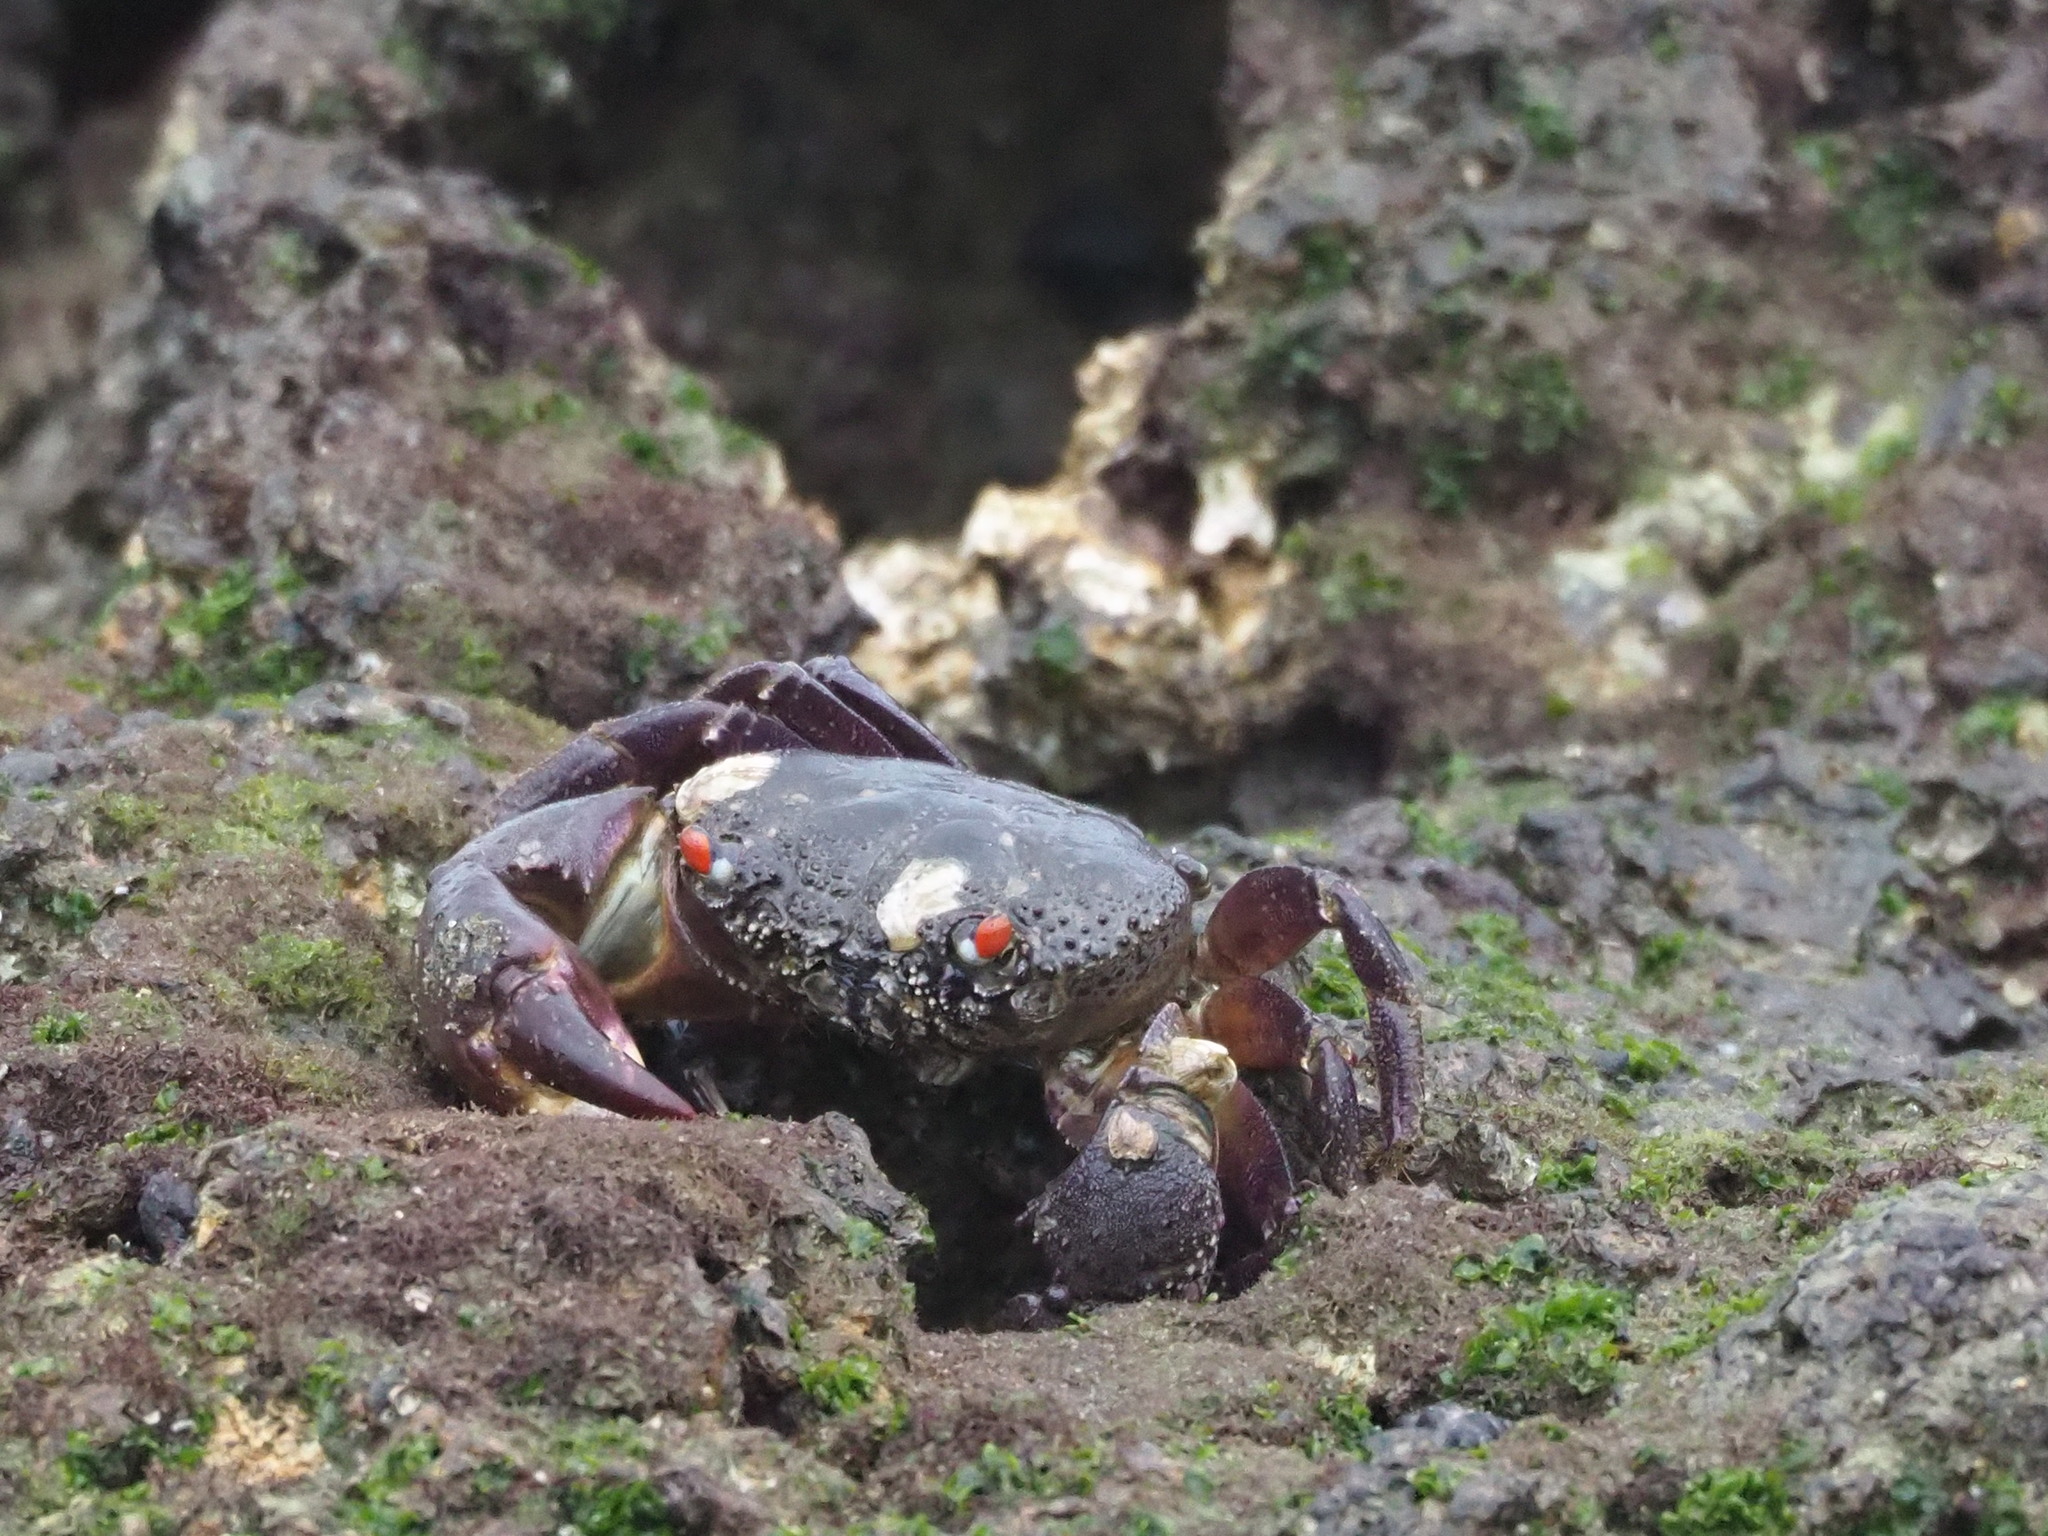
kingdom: Animalia
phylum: Arthropoda
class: Malacostraca
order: Decapoda
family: Eriphiidae
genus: Eriphia
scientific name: Eriphia ferox
